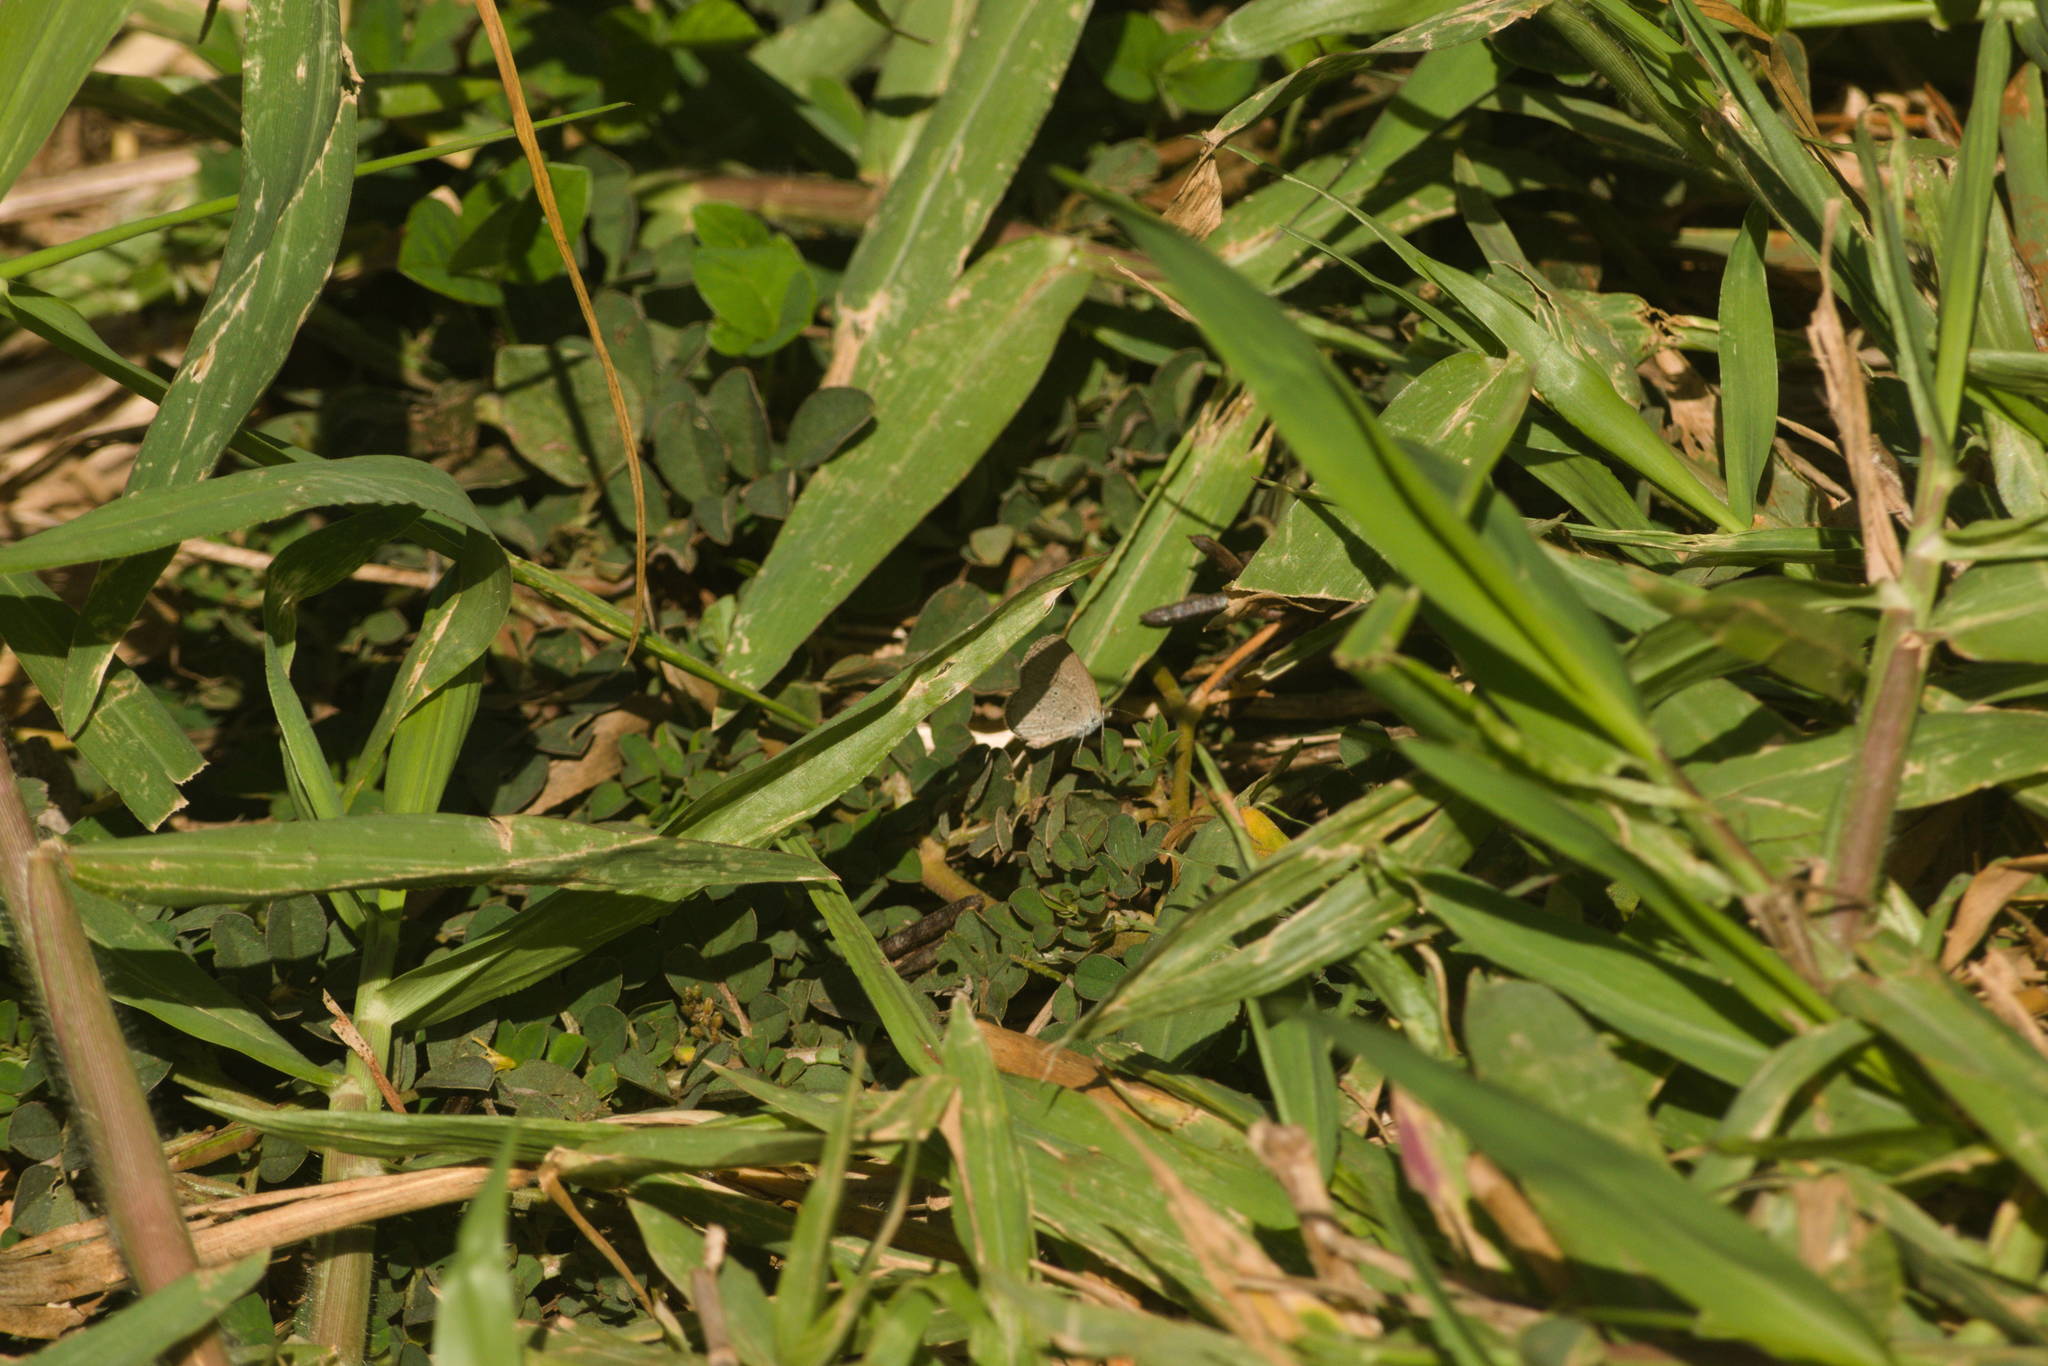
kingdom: Animalia
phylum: Arthropoda
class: Insecta
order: Lepidoptera
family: Lycaenidae
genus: Zizina
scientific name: Zizina otis
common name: Lesser grass blue
